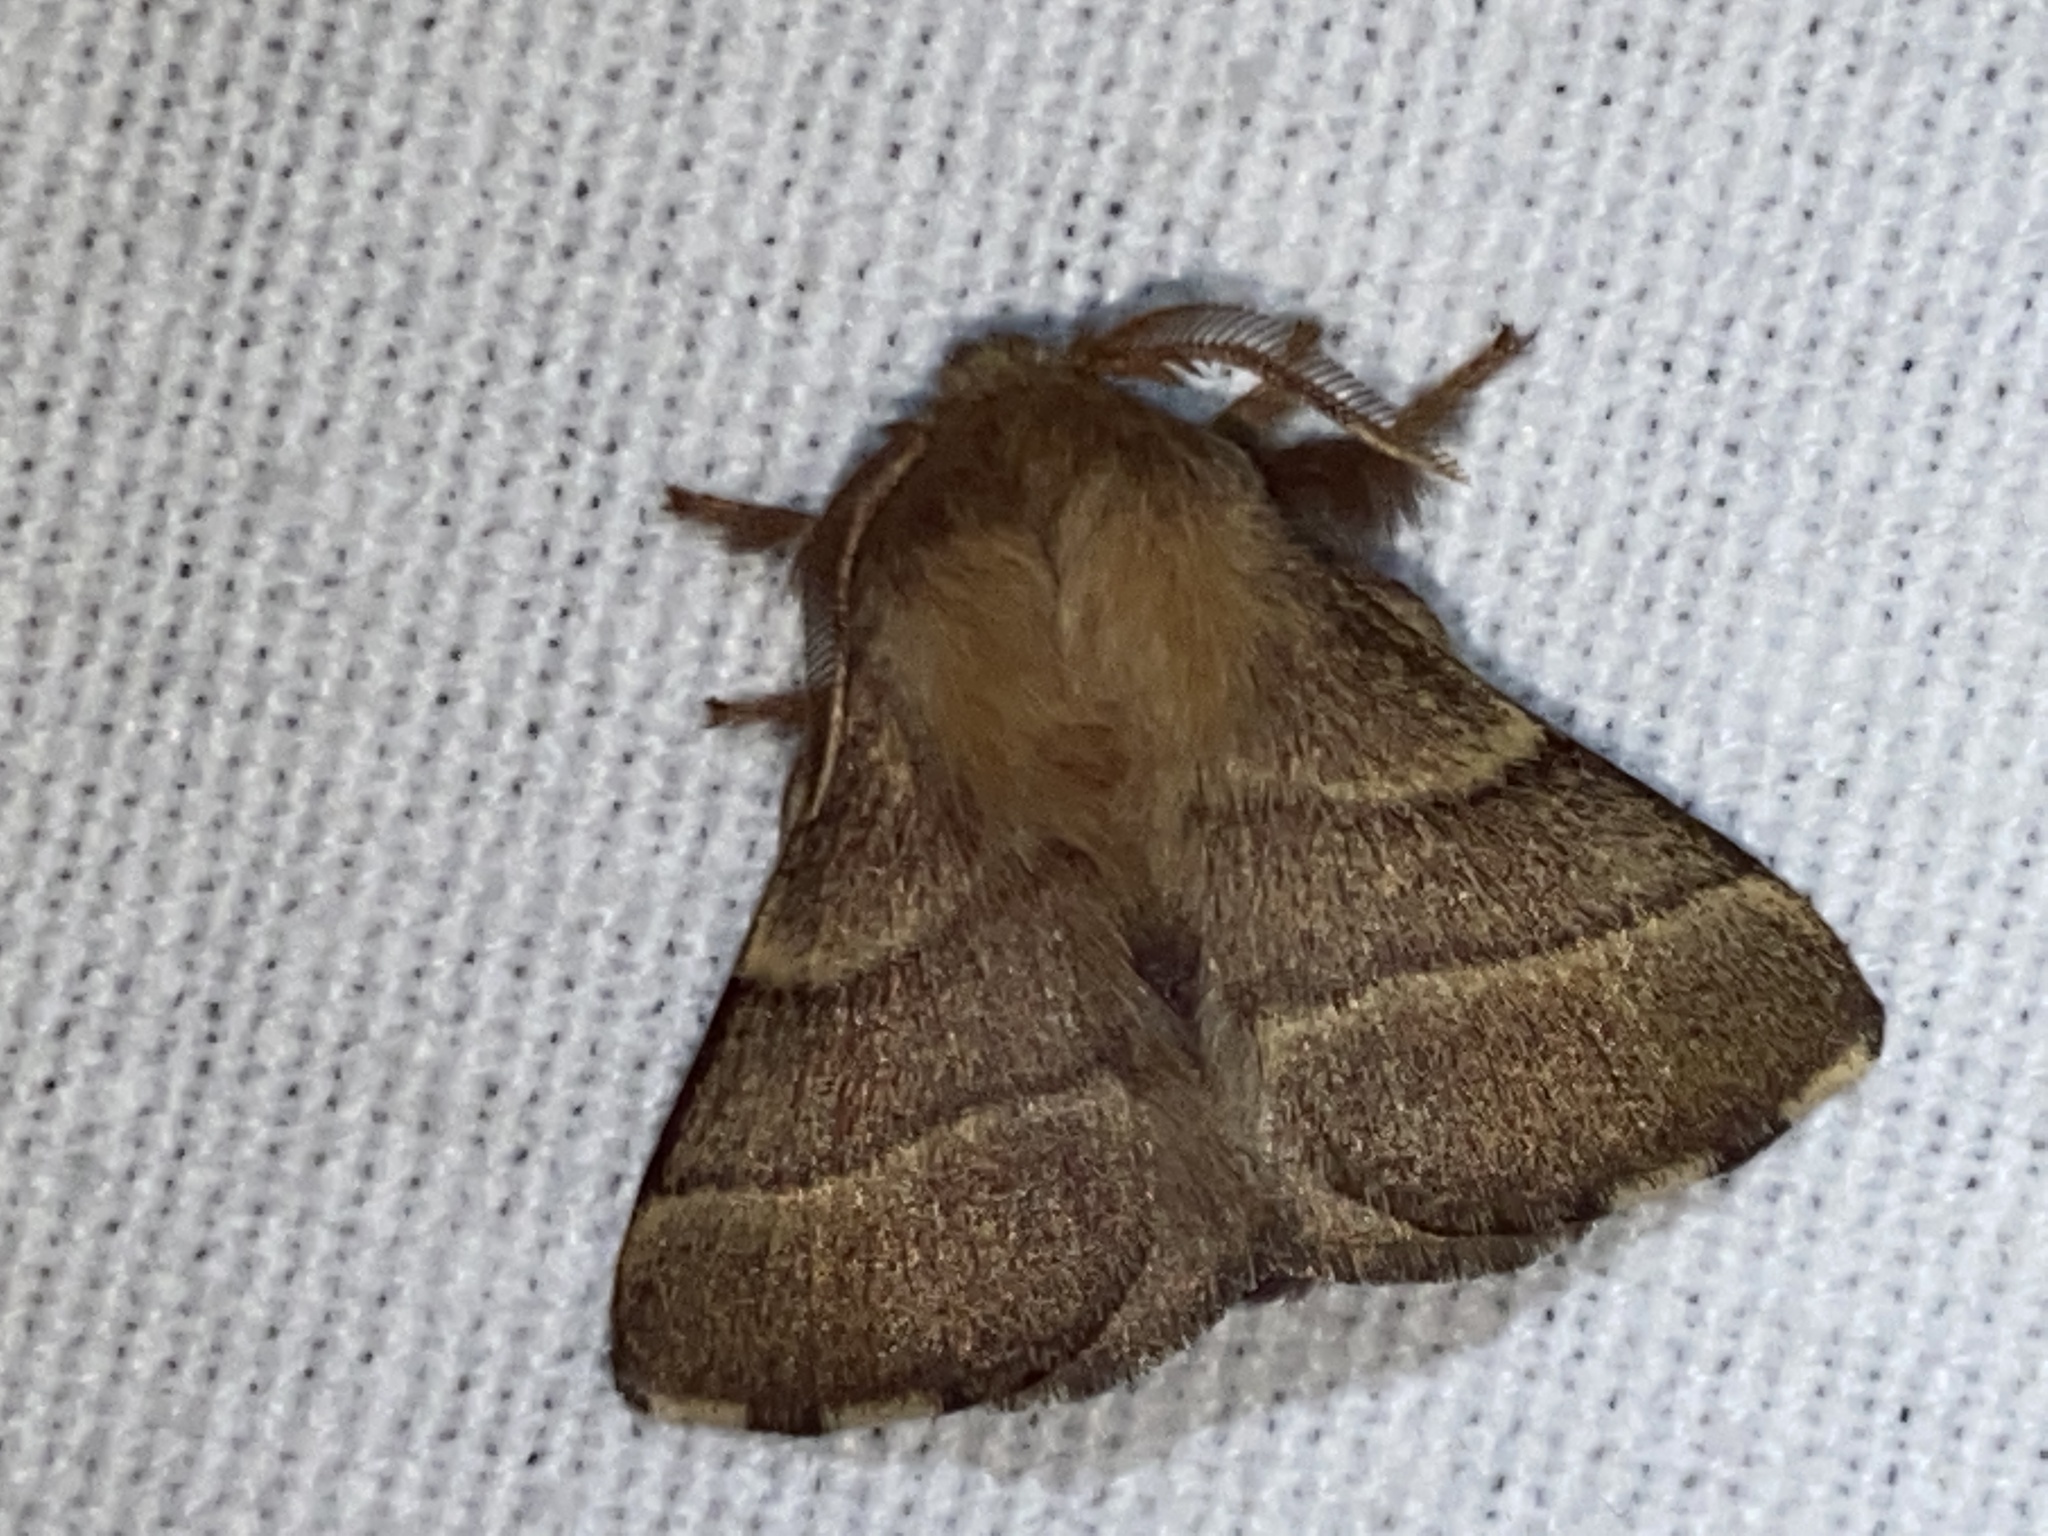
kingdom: Animalia
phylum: Arthropoda
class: Insecta
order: Lepidoptera
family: Lasiocampidae
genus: Malacosoma
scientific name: Malacosoma neustria
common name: The lackey
